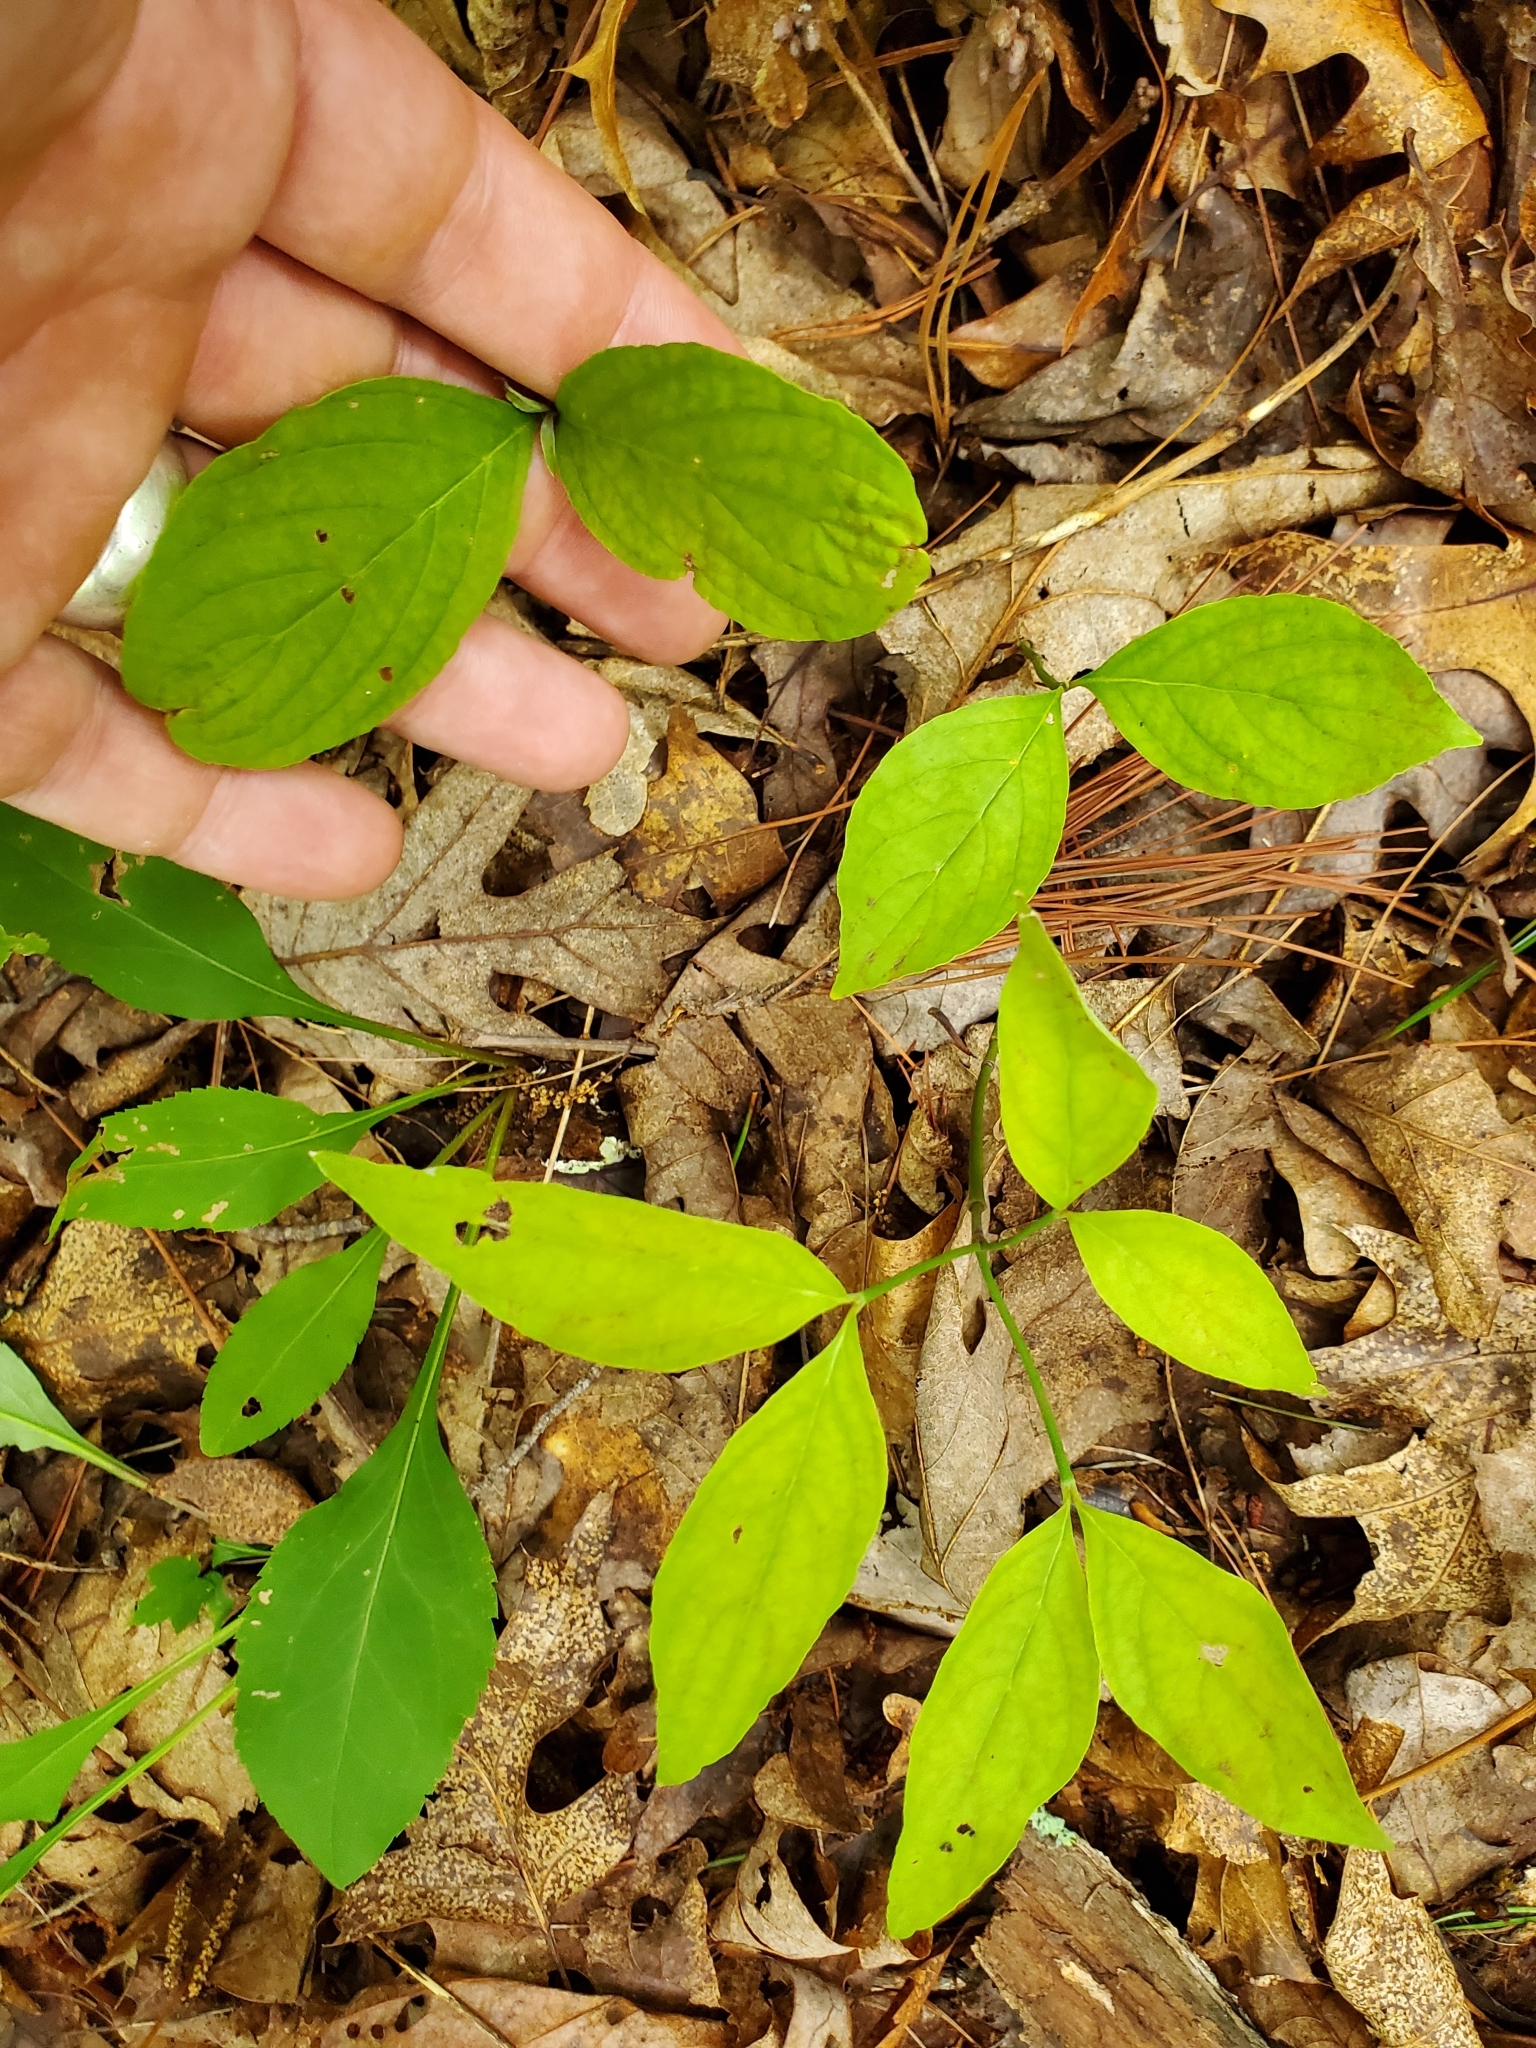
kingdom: Plantae
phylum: Tracheophyta
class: Magnoliopsida
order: Cornales
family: Cornaceae
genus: Cornus
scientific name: Cornus florida
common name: Flowering dogwood
